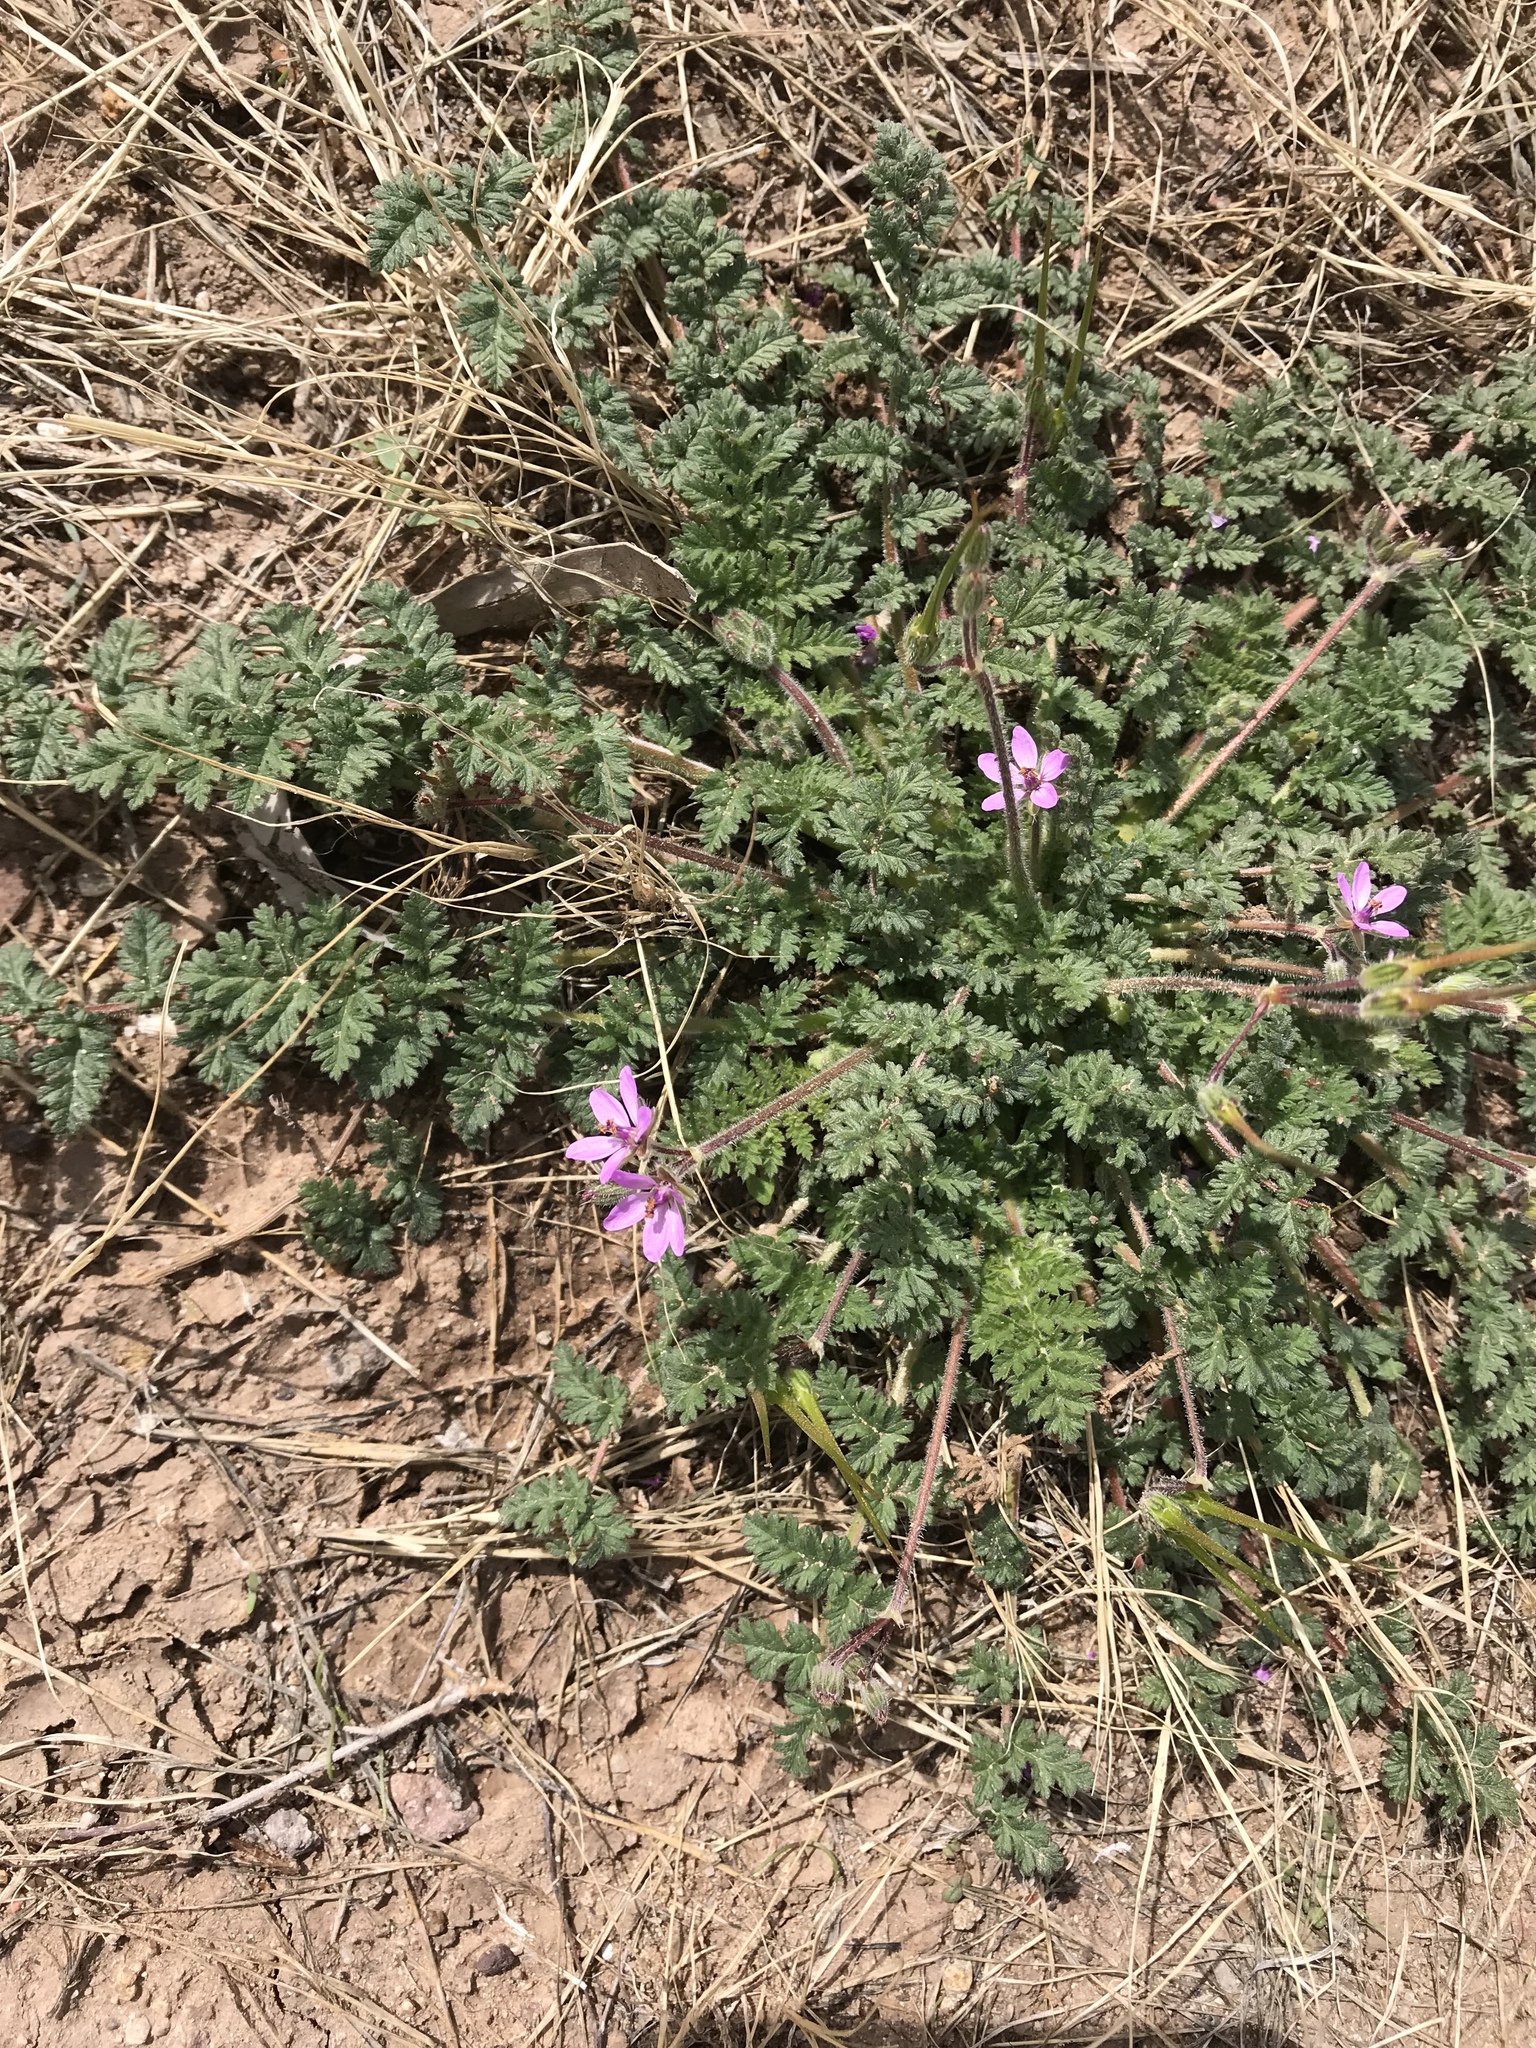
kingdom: Plantae
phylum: Tracheophyta
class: Magnoliopsida
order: Geraniales
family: Geraniaceae
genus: Erodium
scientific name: Erodium cicutarium
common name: Common stork's-bill
